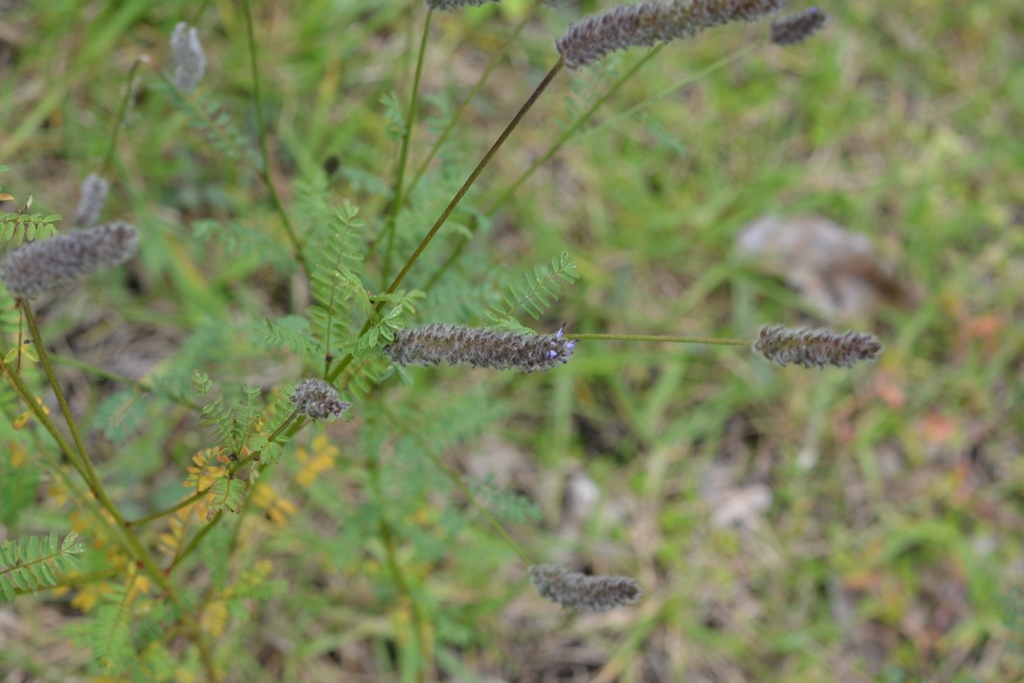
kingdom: Plantae
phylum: Tracheophyta
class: Magnoliopsida
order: Fabales
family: Fabaceae
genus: Dalea
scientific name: Dalea leporina
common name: Foxtail dalea
